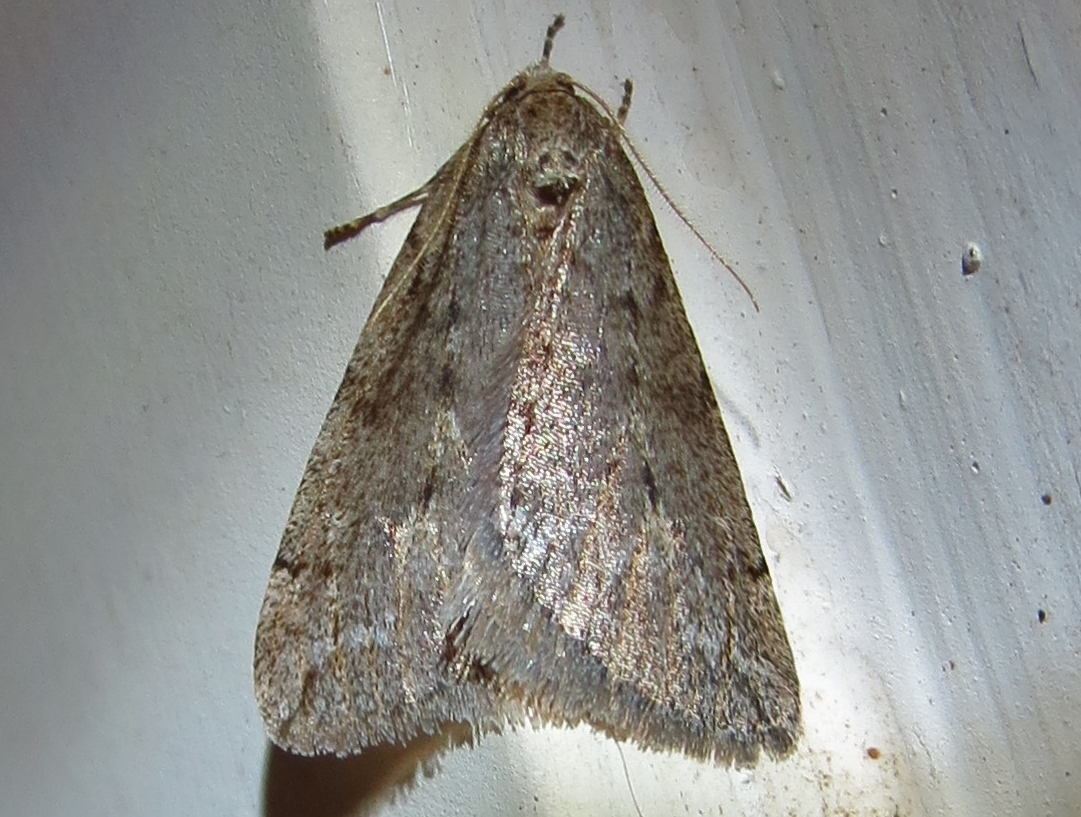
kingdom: Animalia
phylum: Arthropoda
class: Insecta
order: Lepidoptera
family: Geometridae
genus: Paleacrita
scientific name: Paleacrita vernata
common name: Spring cankerworm
